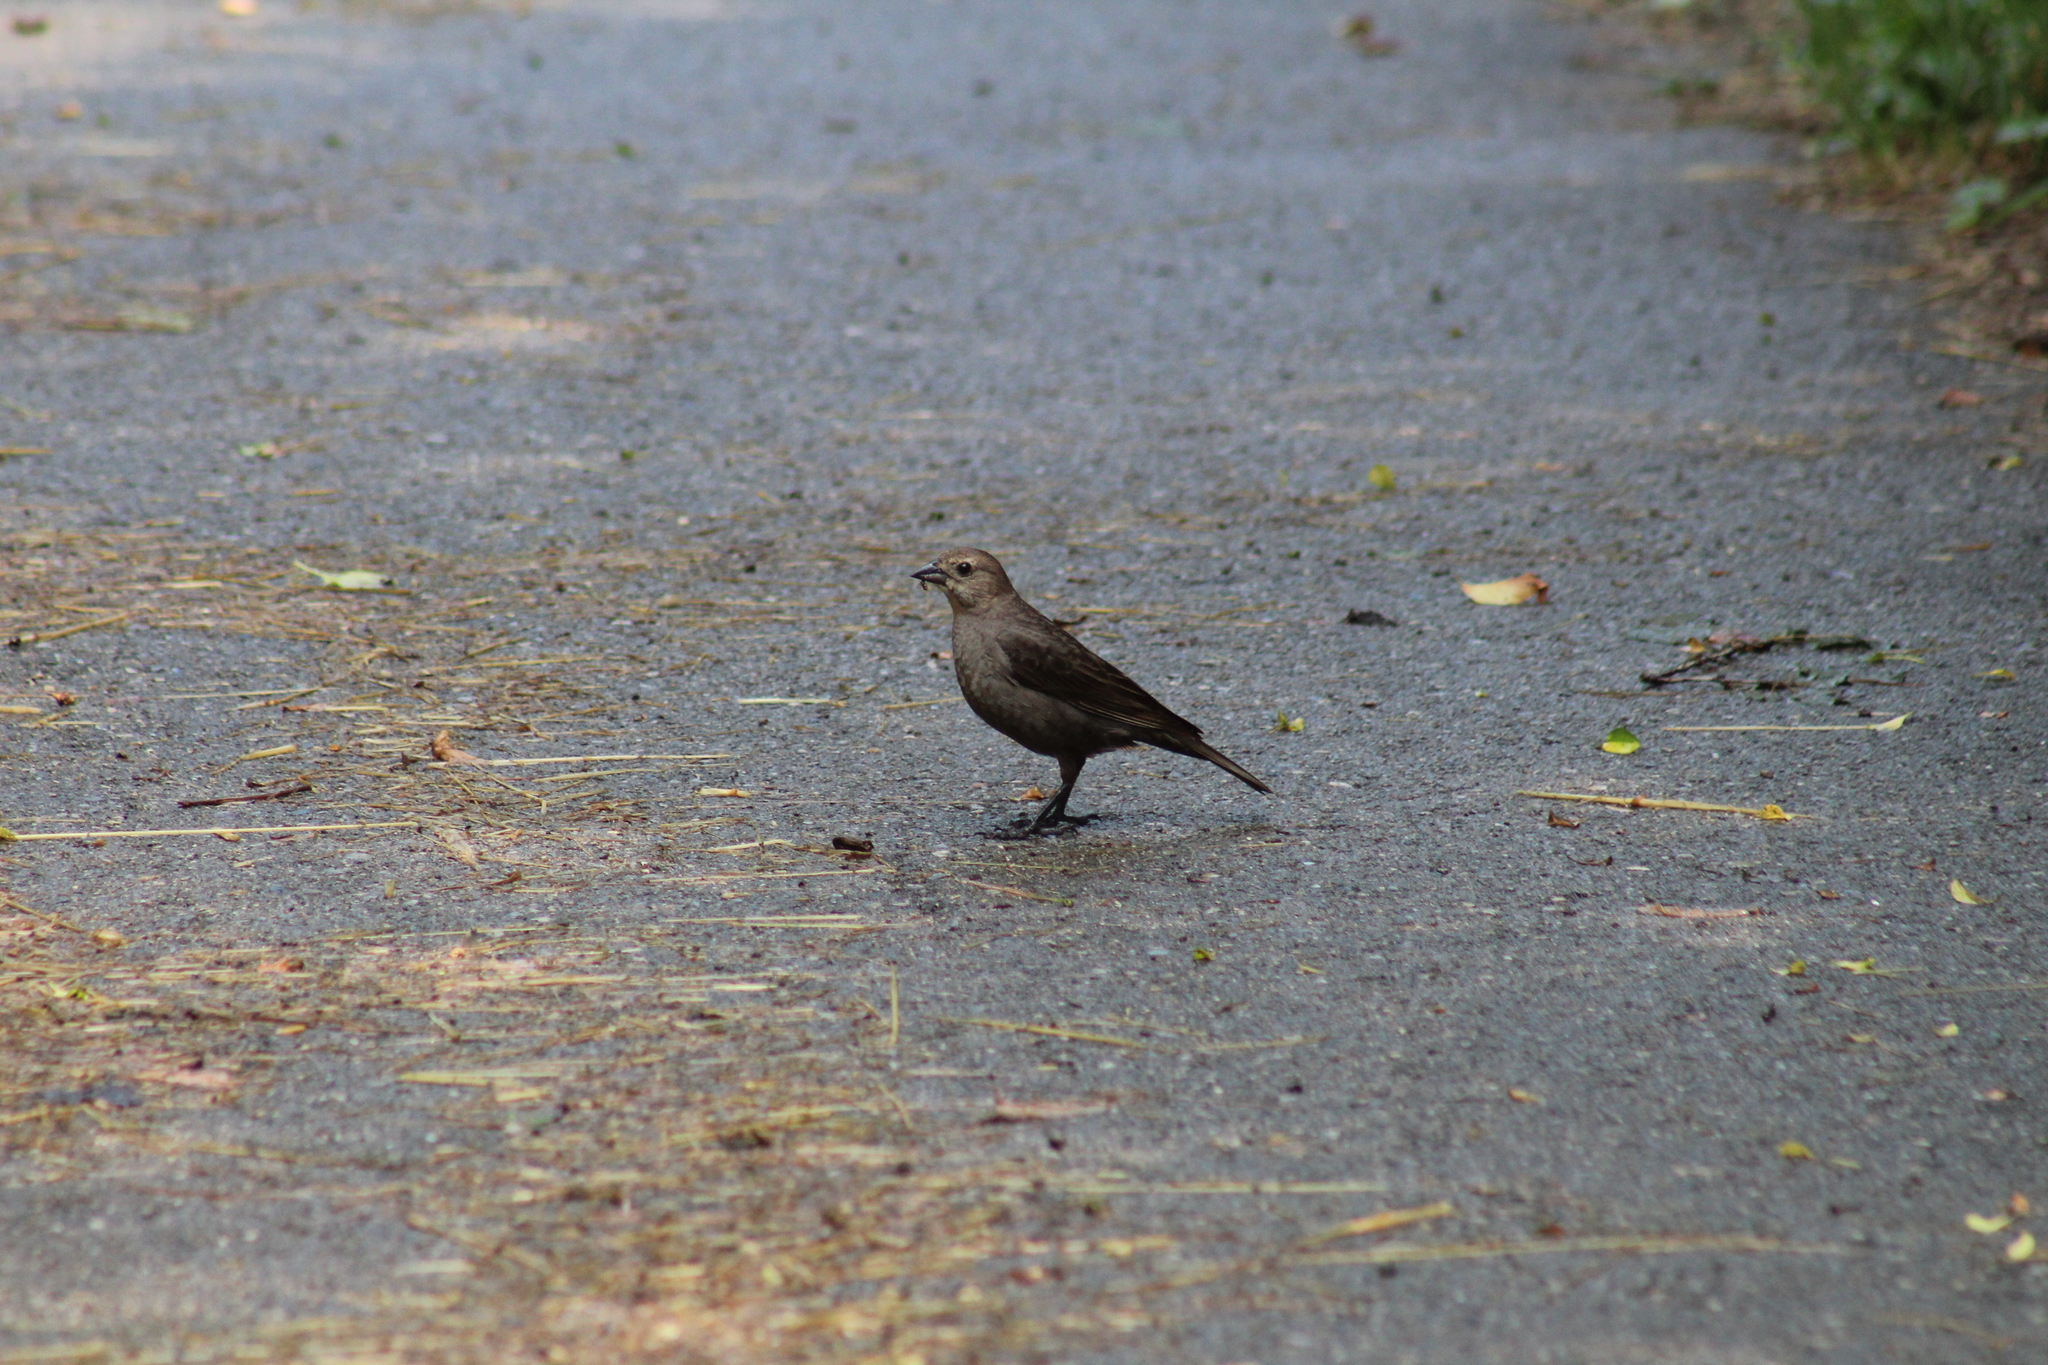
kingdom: Animalia
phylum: Chordata
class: Aves
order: Passeriformes
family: Icteridae
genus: Molothrus
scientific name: Molothrus ater
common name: Brown-headed cowbird
